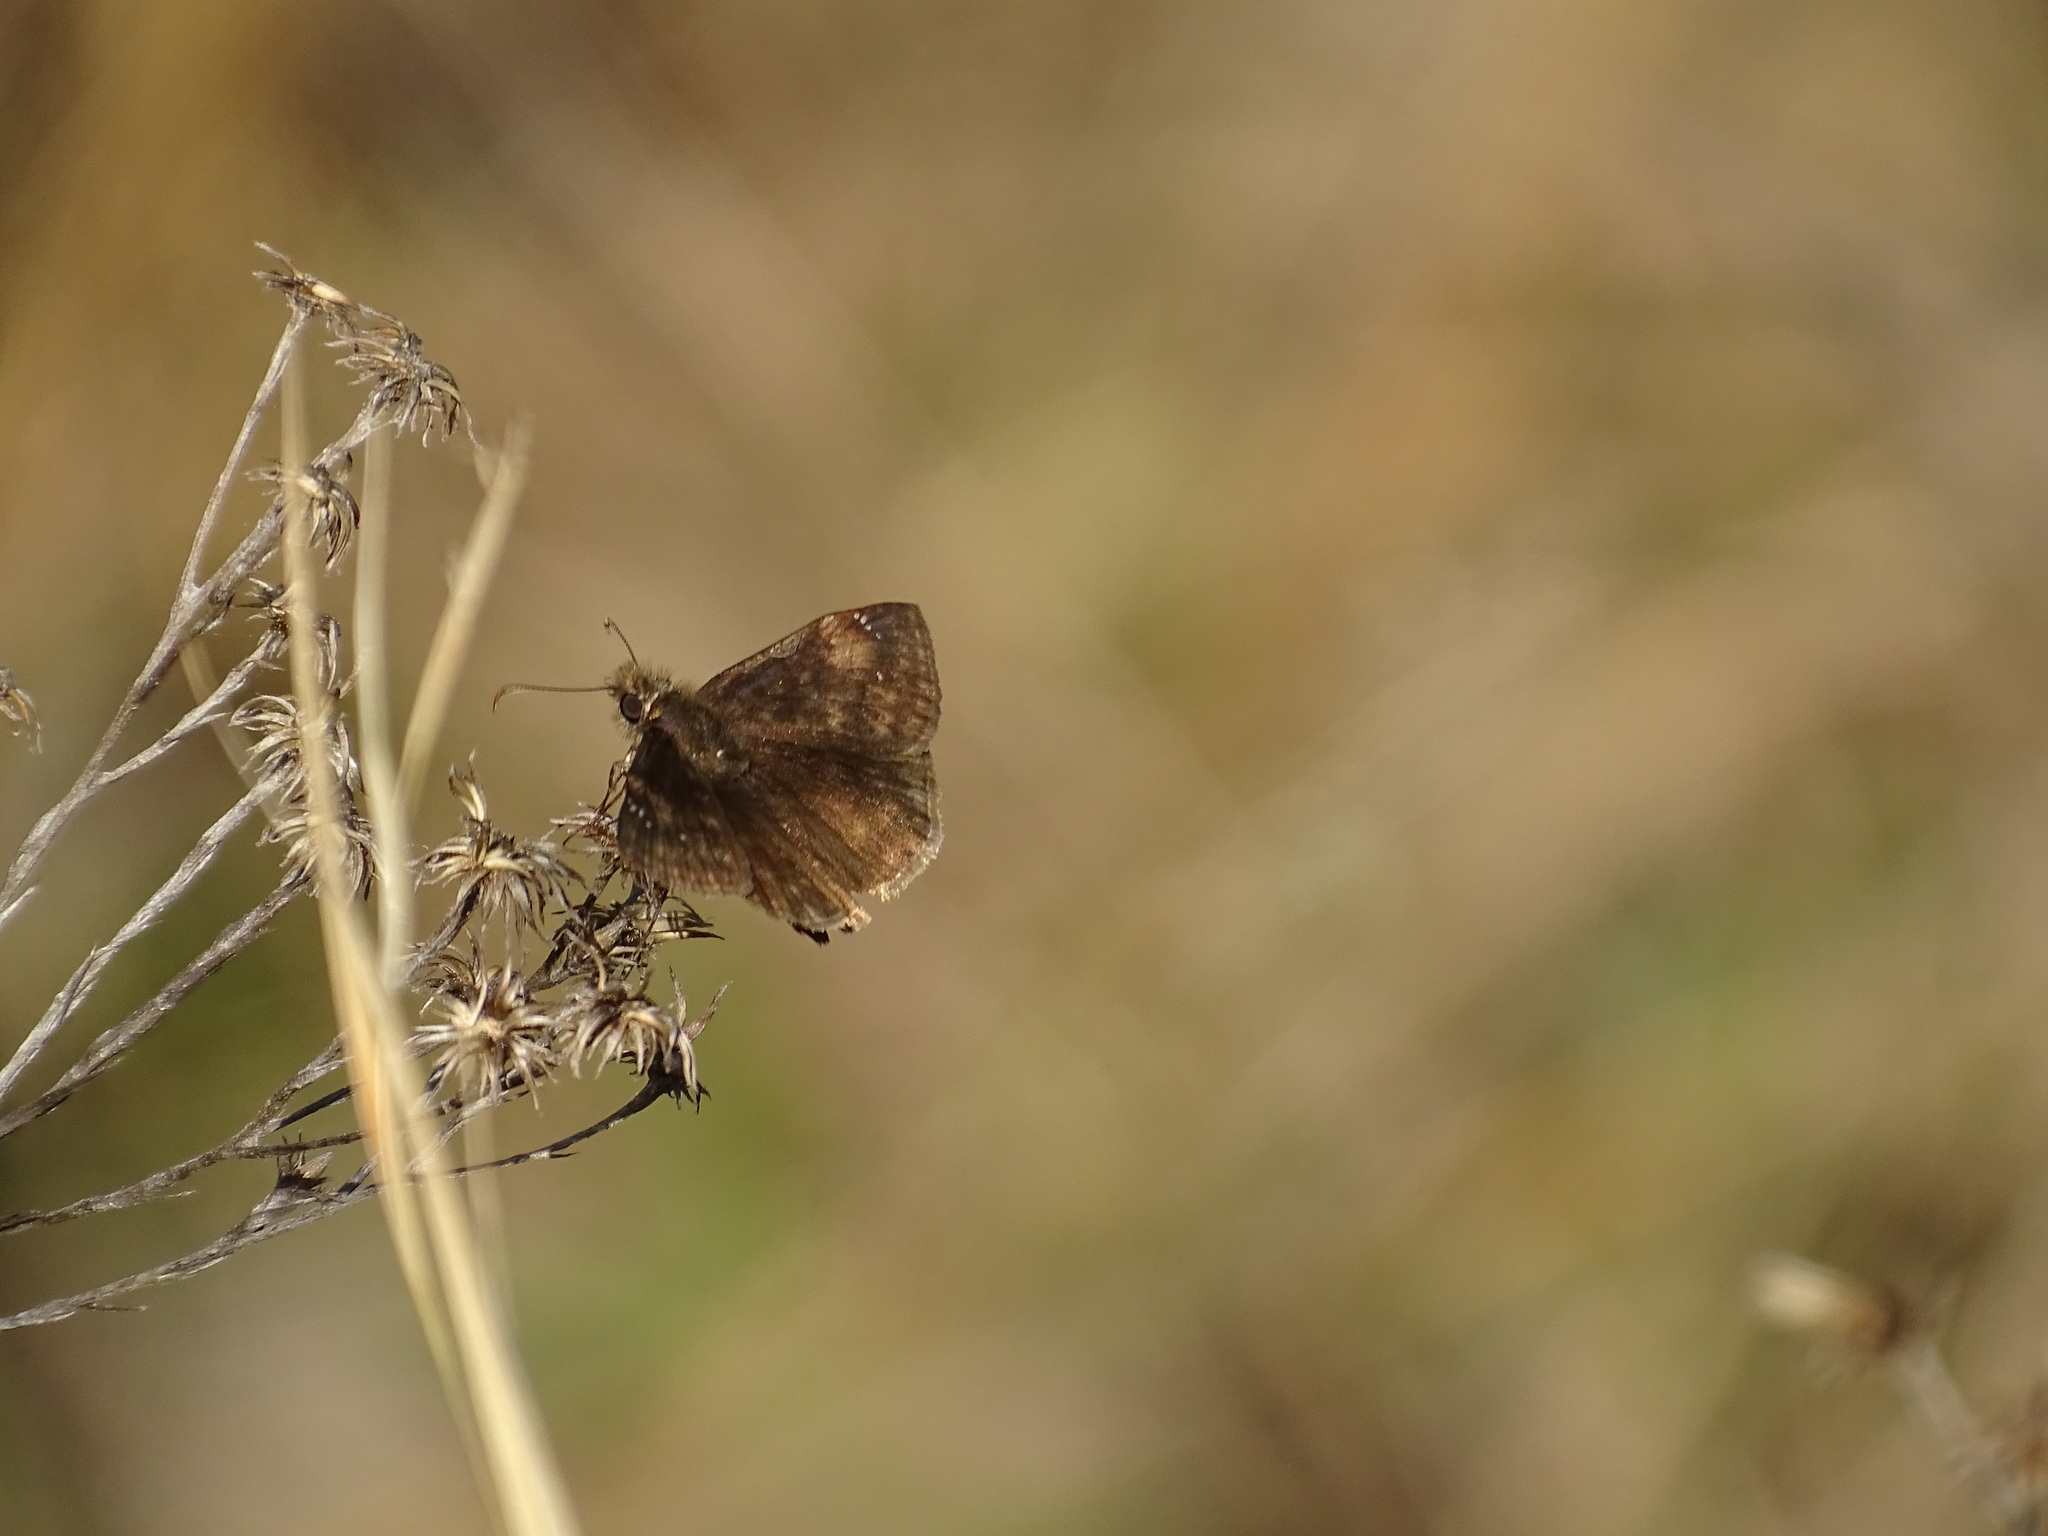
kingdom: Animalia
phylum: Arthropoda
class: Insecta
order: Lepidoptera
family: Hesperiidae
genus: Erynnis
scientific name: Erynnis zarucco
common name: Zarucco duskywing
